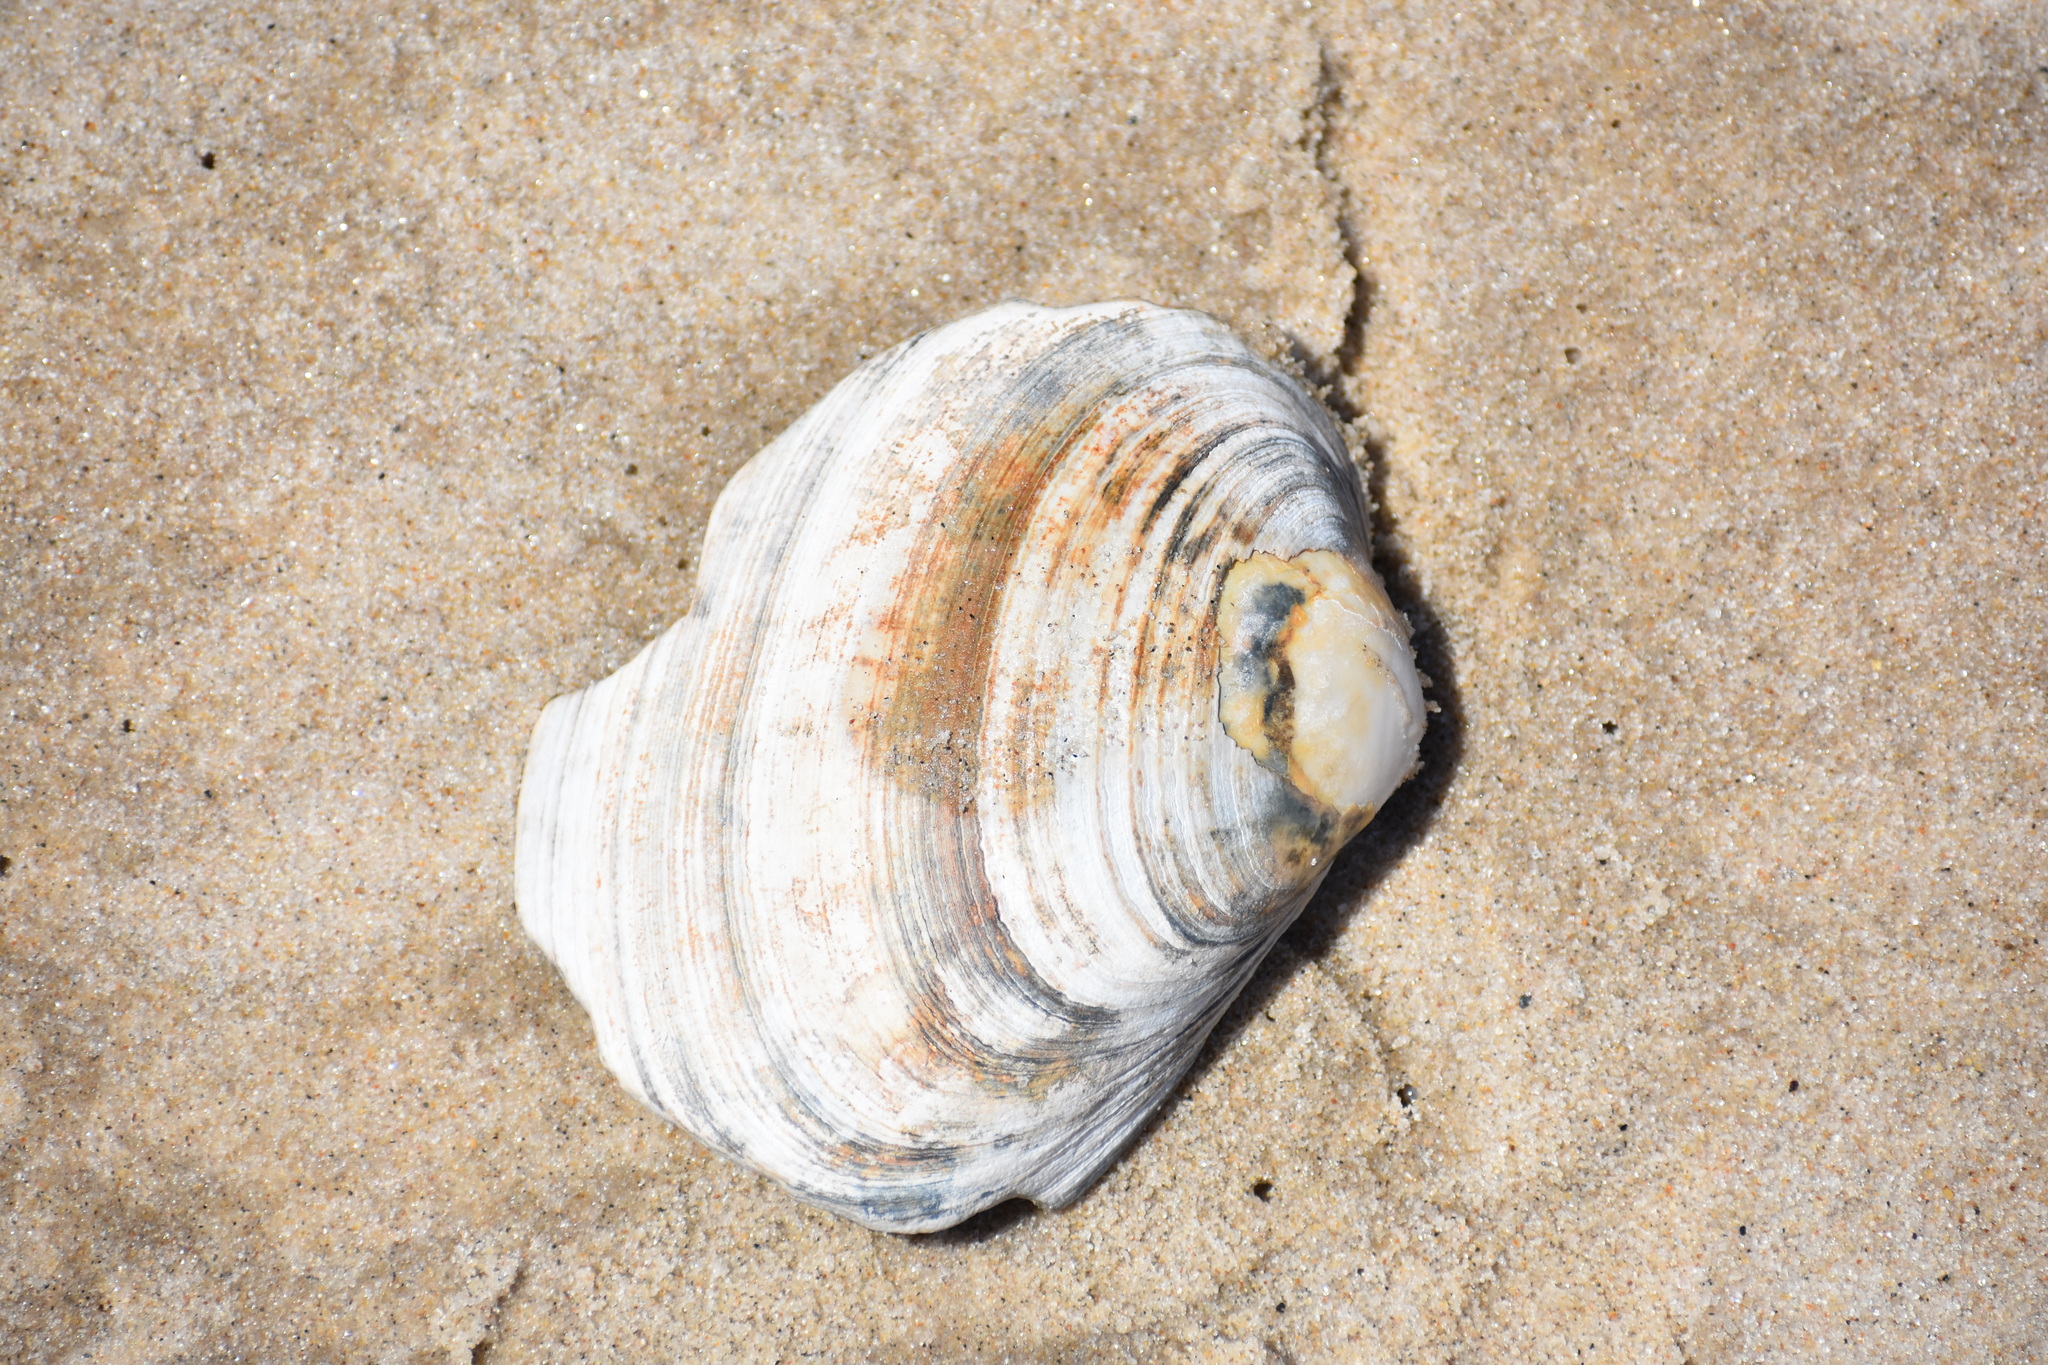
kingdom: Animalia
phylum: Mollusca
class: Bivalvia
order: Venerida
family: Mactridae
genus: Spisula
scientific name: Spisula solidissima
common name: Atlantic surf clam
